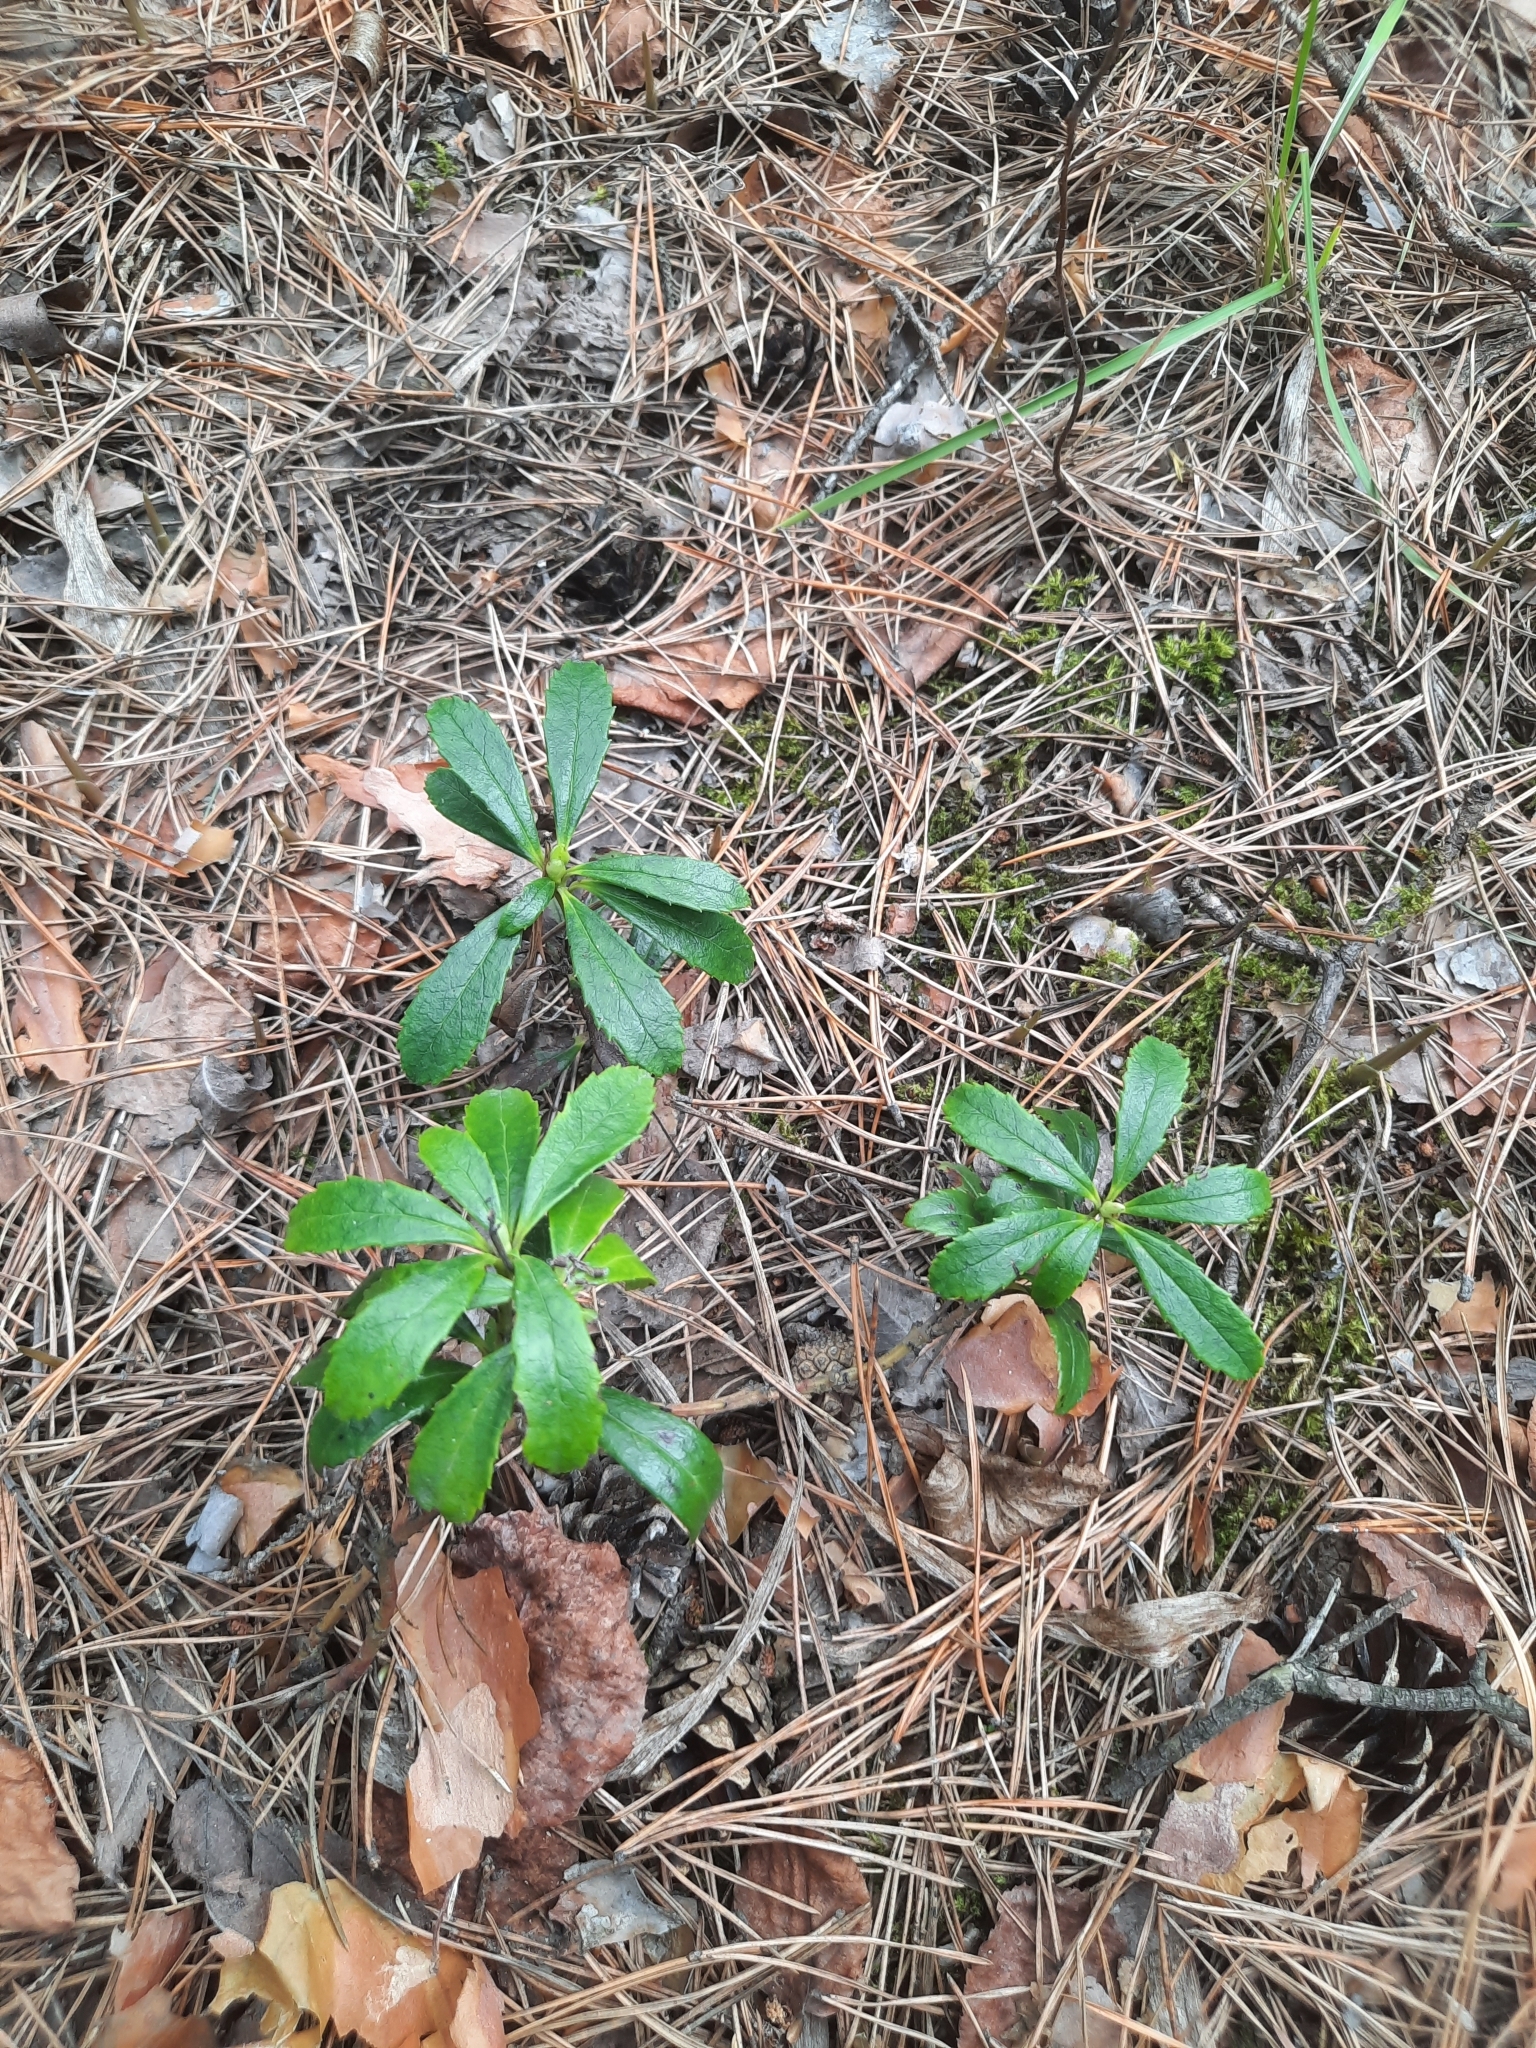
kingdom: Plantae
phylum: Tracheophyta
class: Magnoliopsida
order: Ericales
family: Ericaceae
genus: Chimaphila
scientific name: Chimaphila umbellata
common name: Pipsissewa
